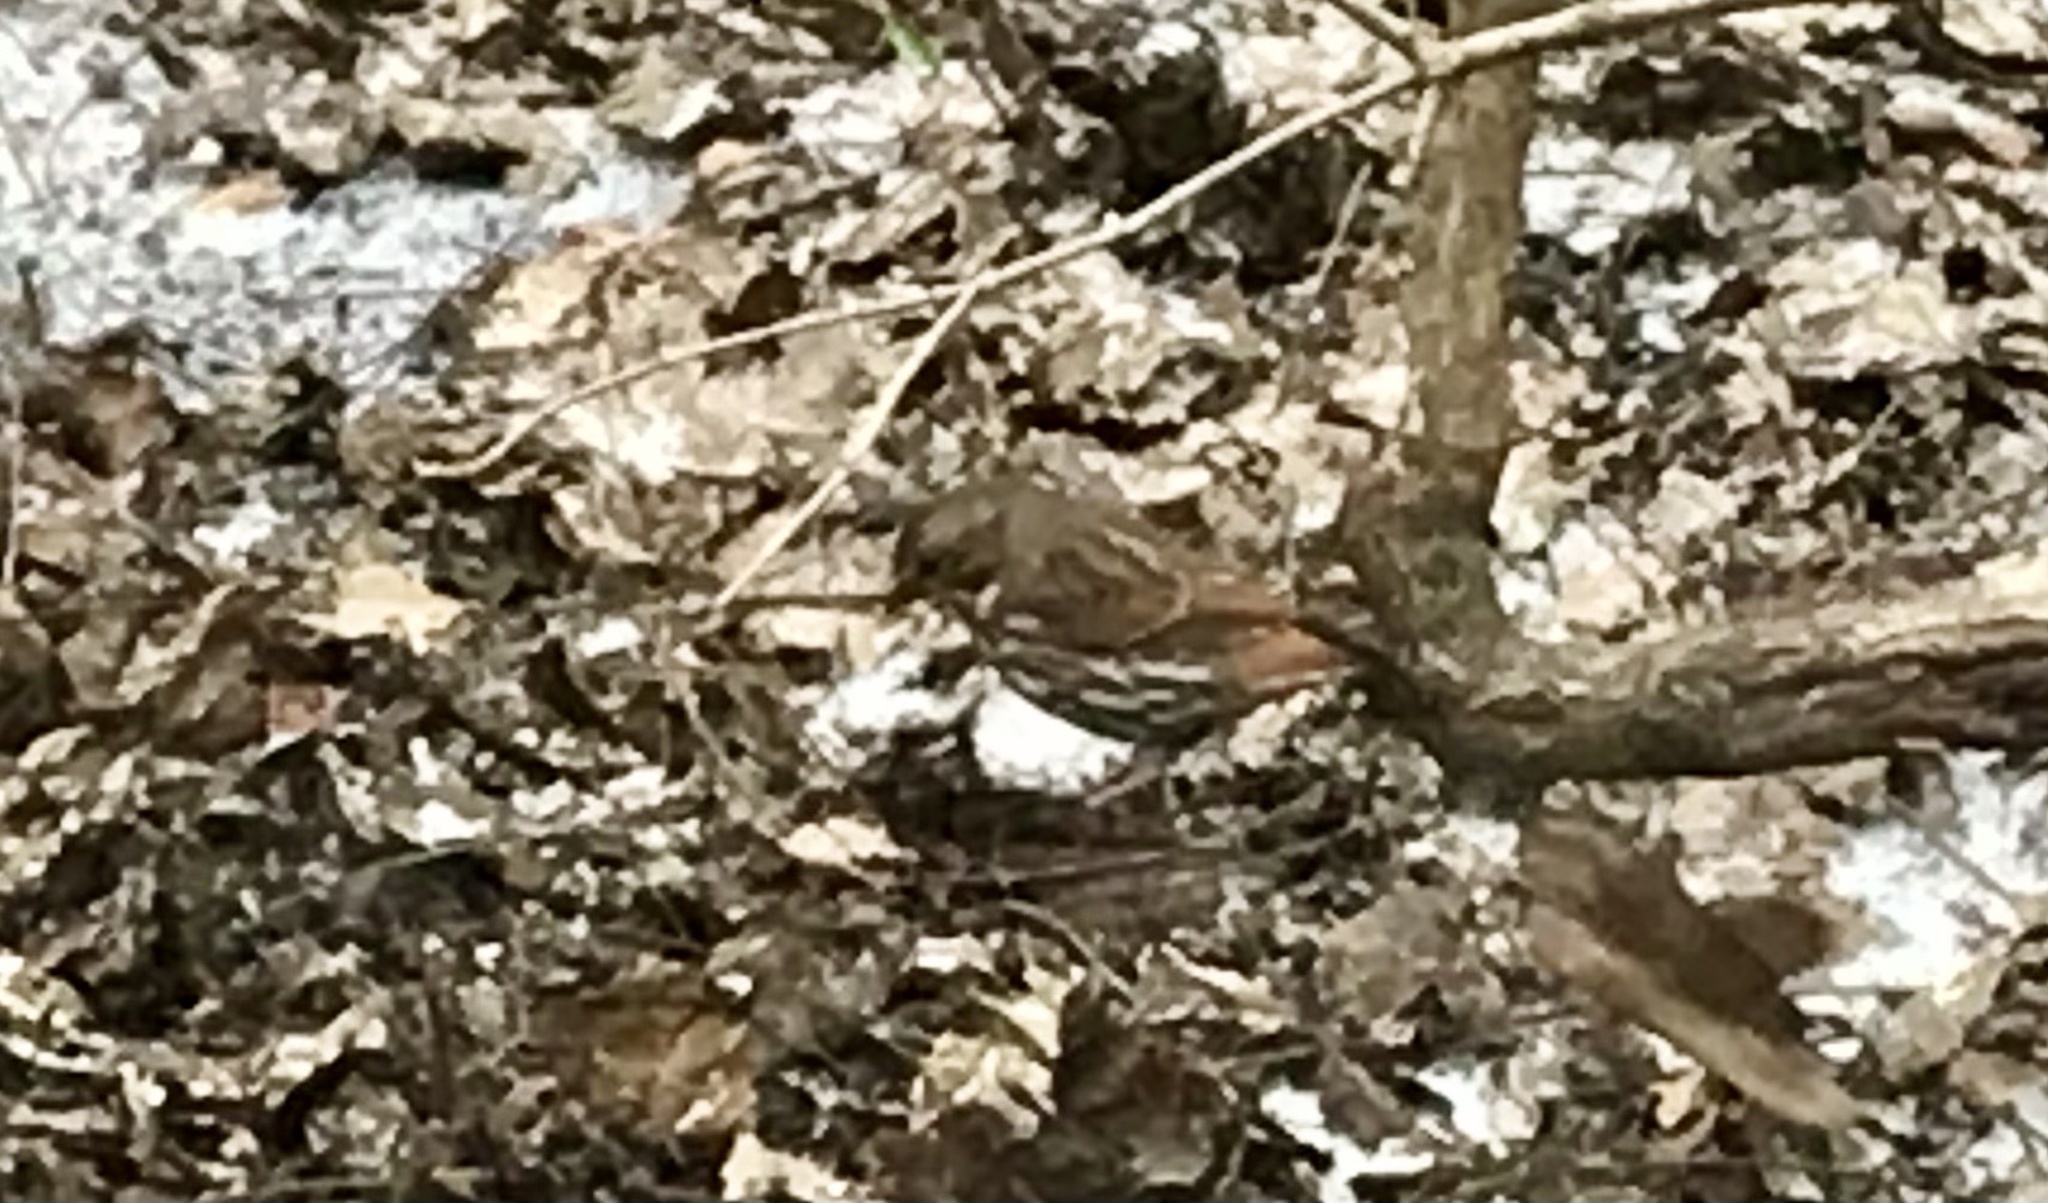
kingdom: Animalia
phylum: Chordata
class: Aves
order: Passeriformes
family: Passerellidae
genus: Passerella
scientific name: Passerella iliaca
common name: Fox sparrow
